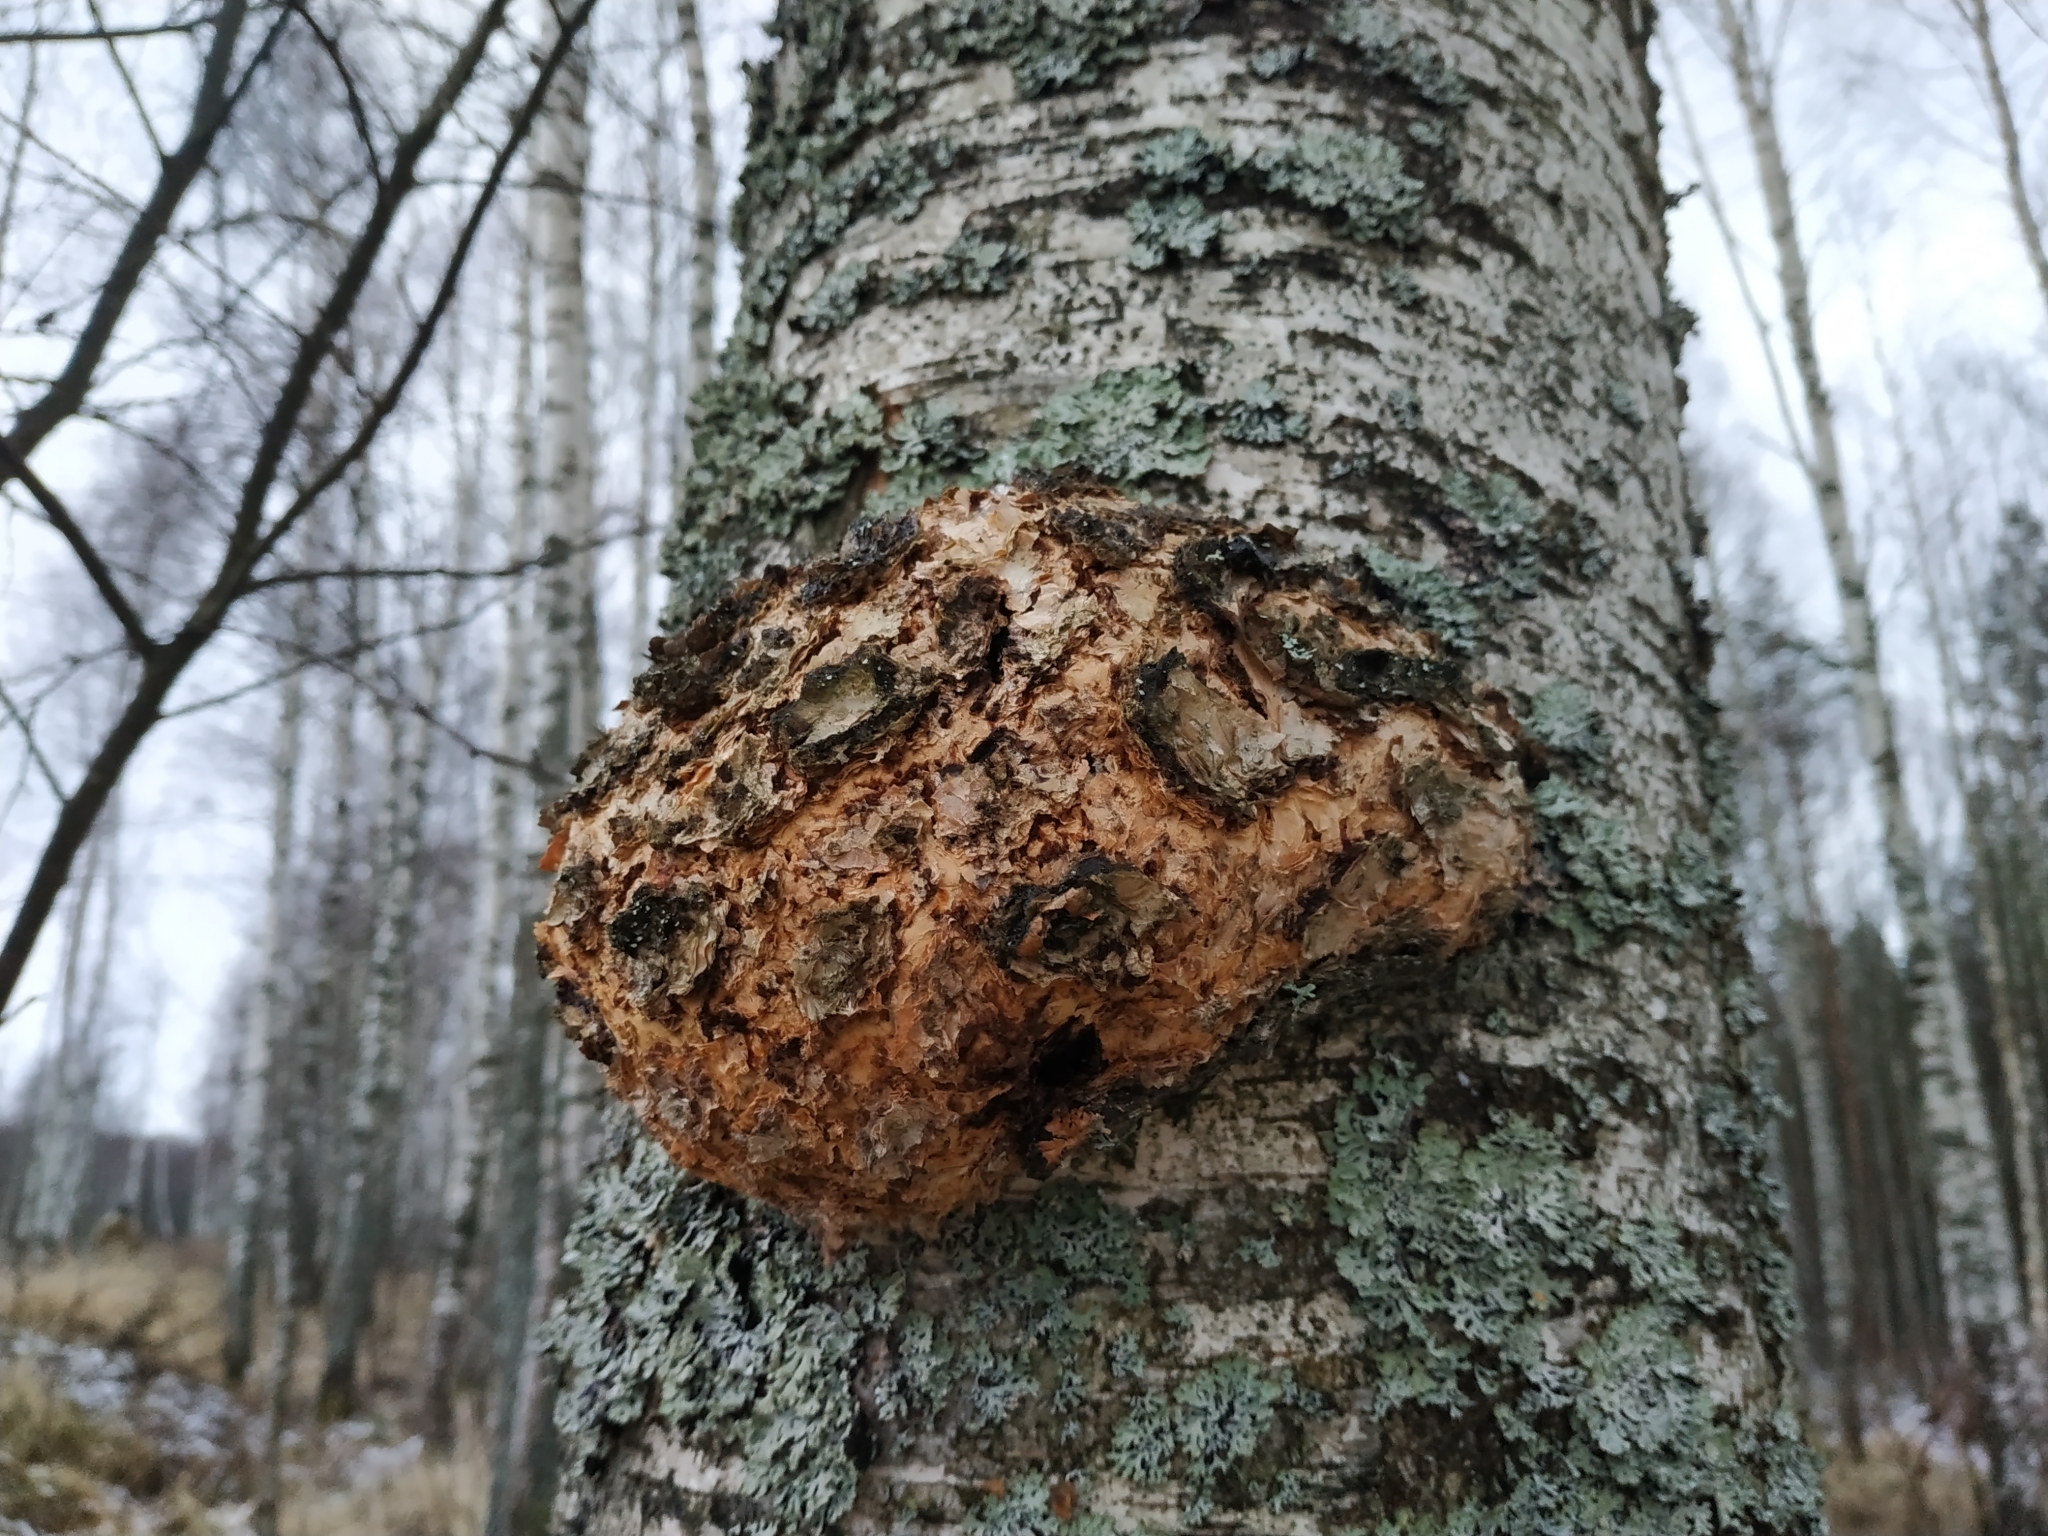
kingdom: Bacteria
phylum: Proteobacteria
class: Alphaproteobacteria
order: Rhizobiales
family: Rhizobiaceae
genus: Rhizobium
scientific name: Rhizobium Agrobacterium radiobacter
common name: Bacterial crown gall
